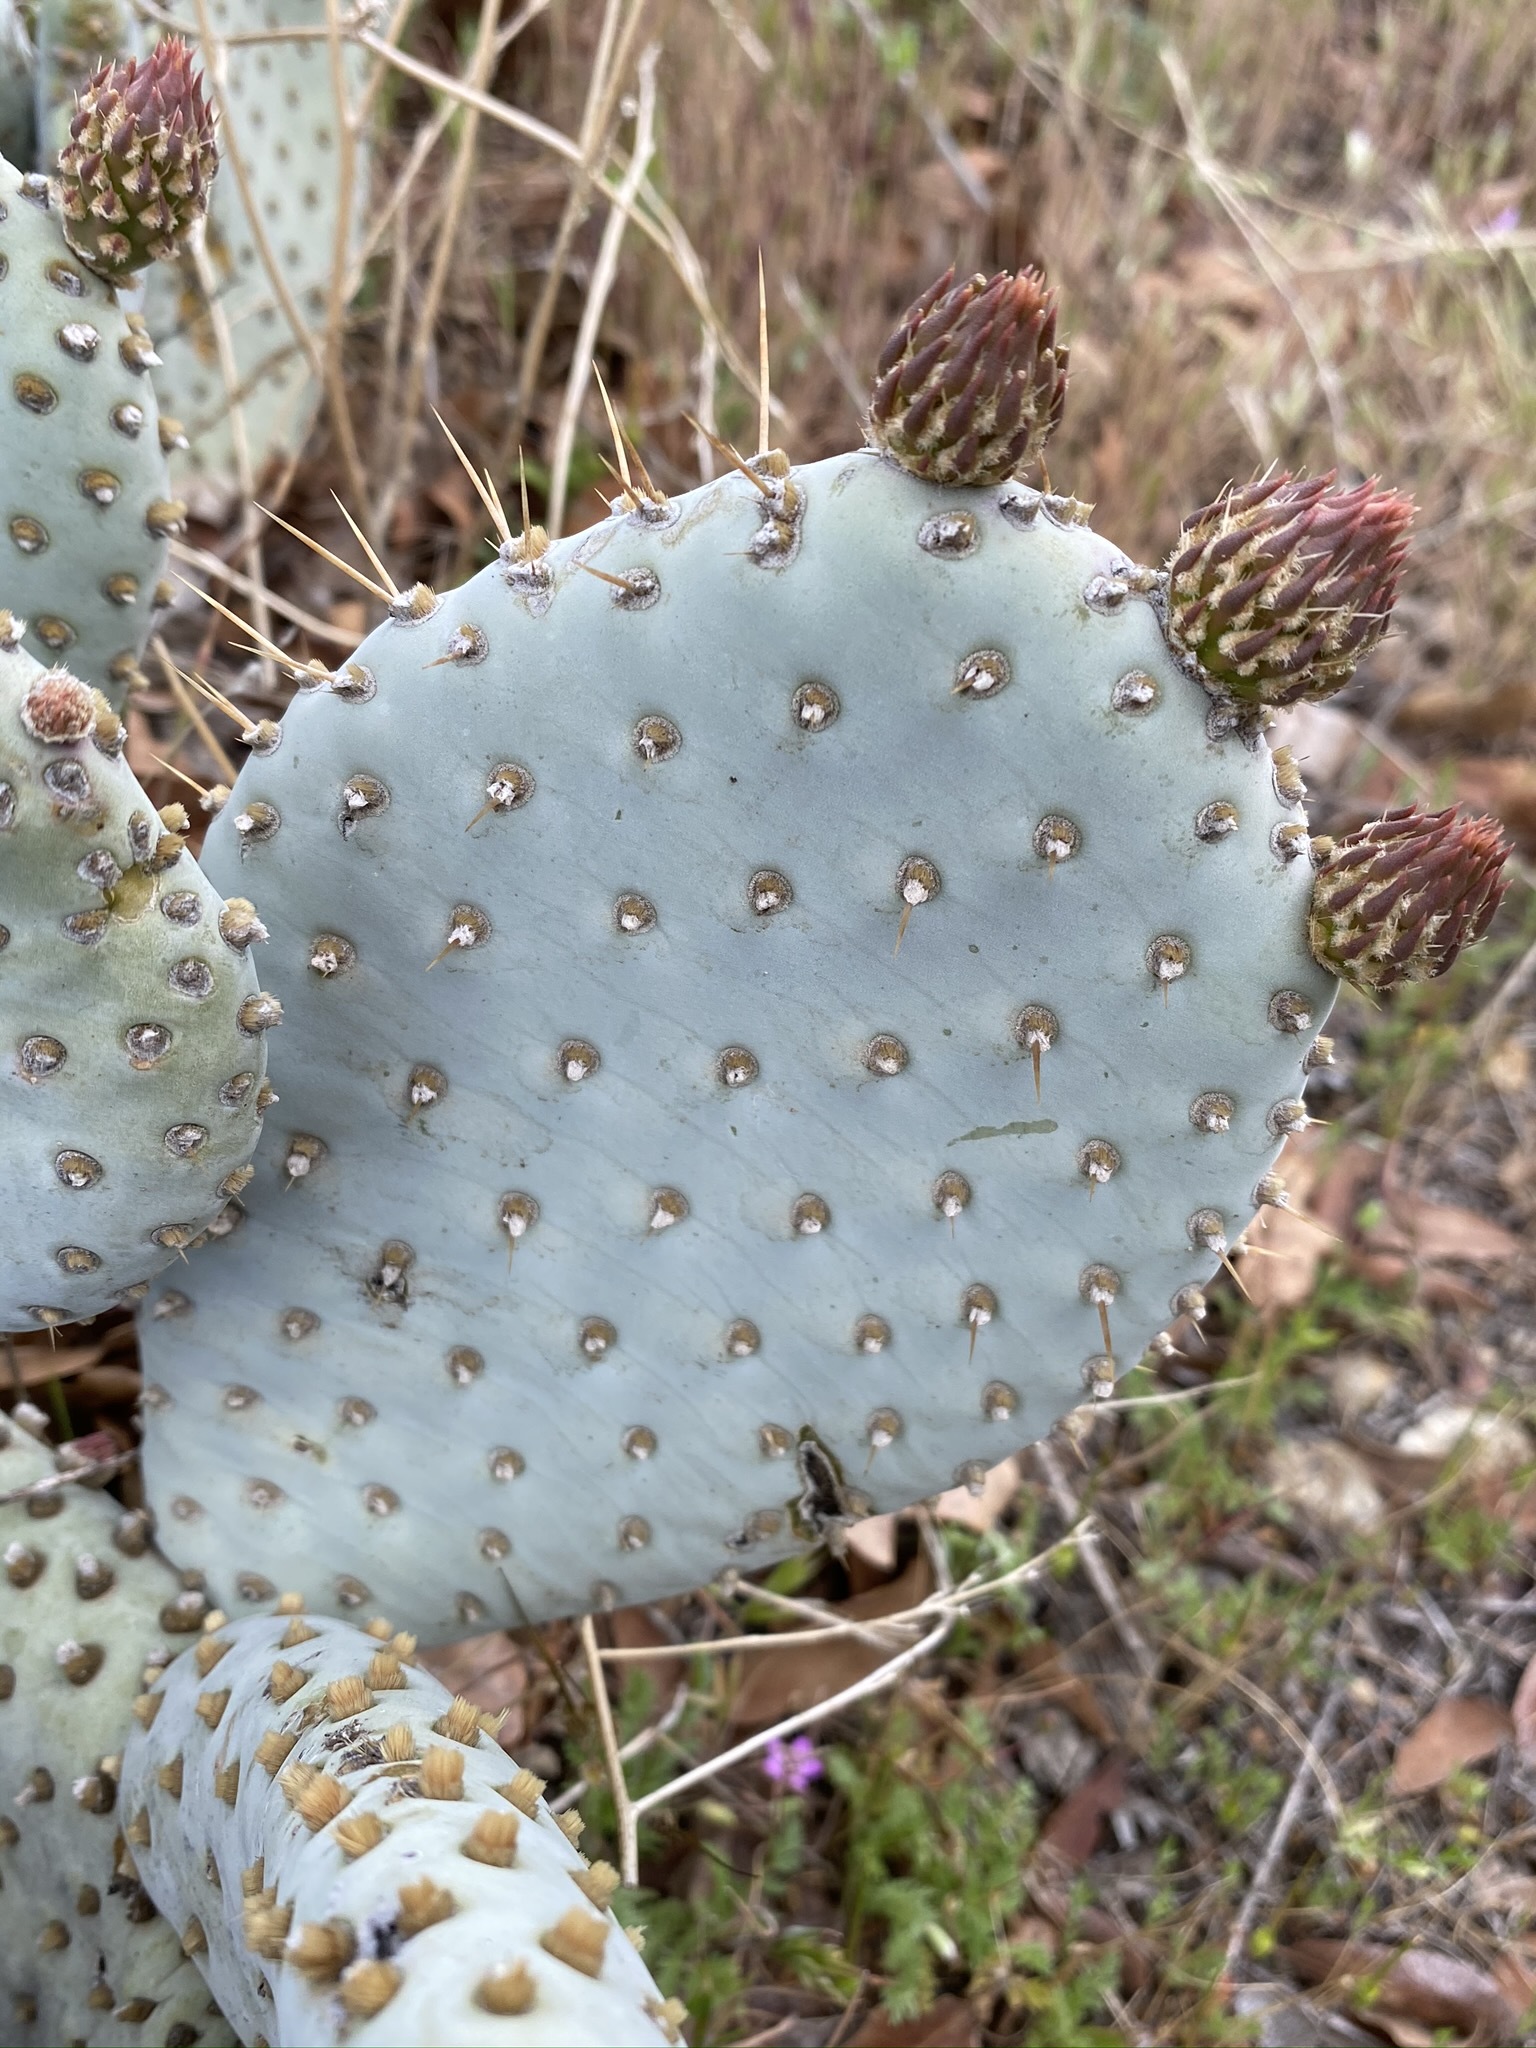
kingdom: Plantae
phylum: Tracheophyta
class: Magnoliopsida
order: Caryophyllales
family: Cactaceae
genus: Opuntia
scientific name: Opuntia basilaris
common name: Beavertail prickly-pear
